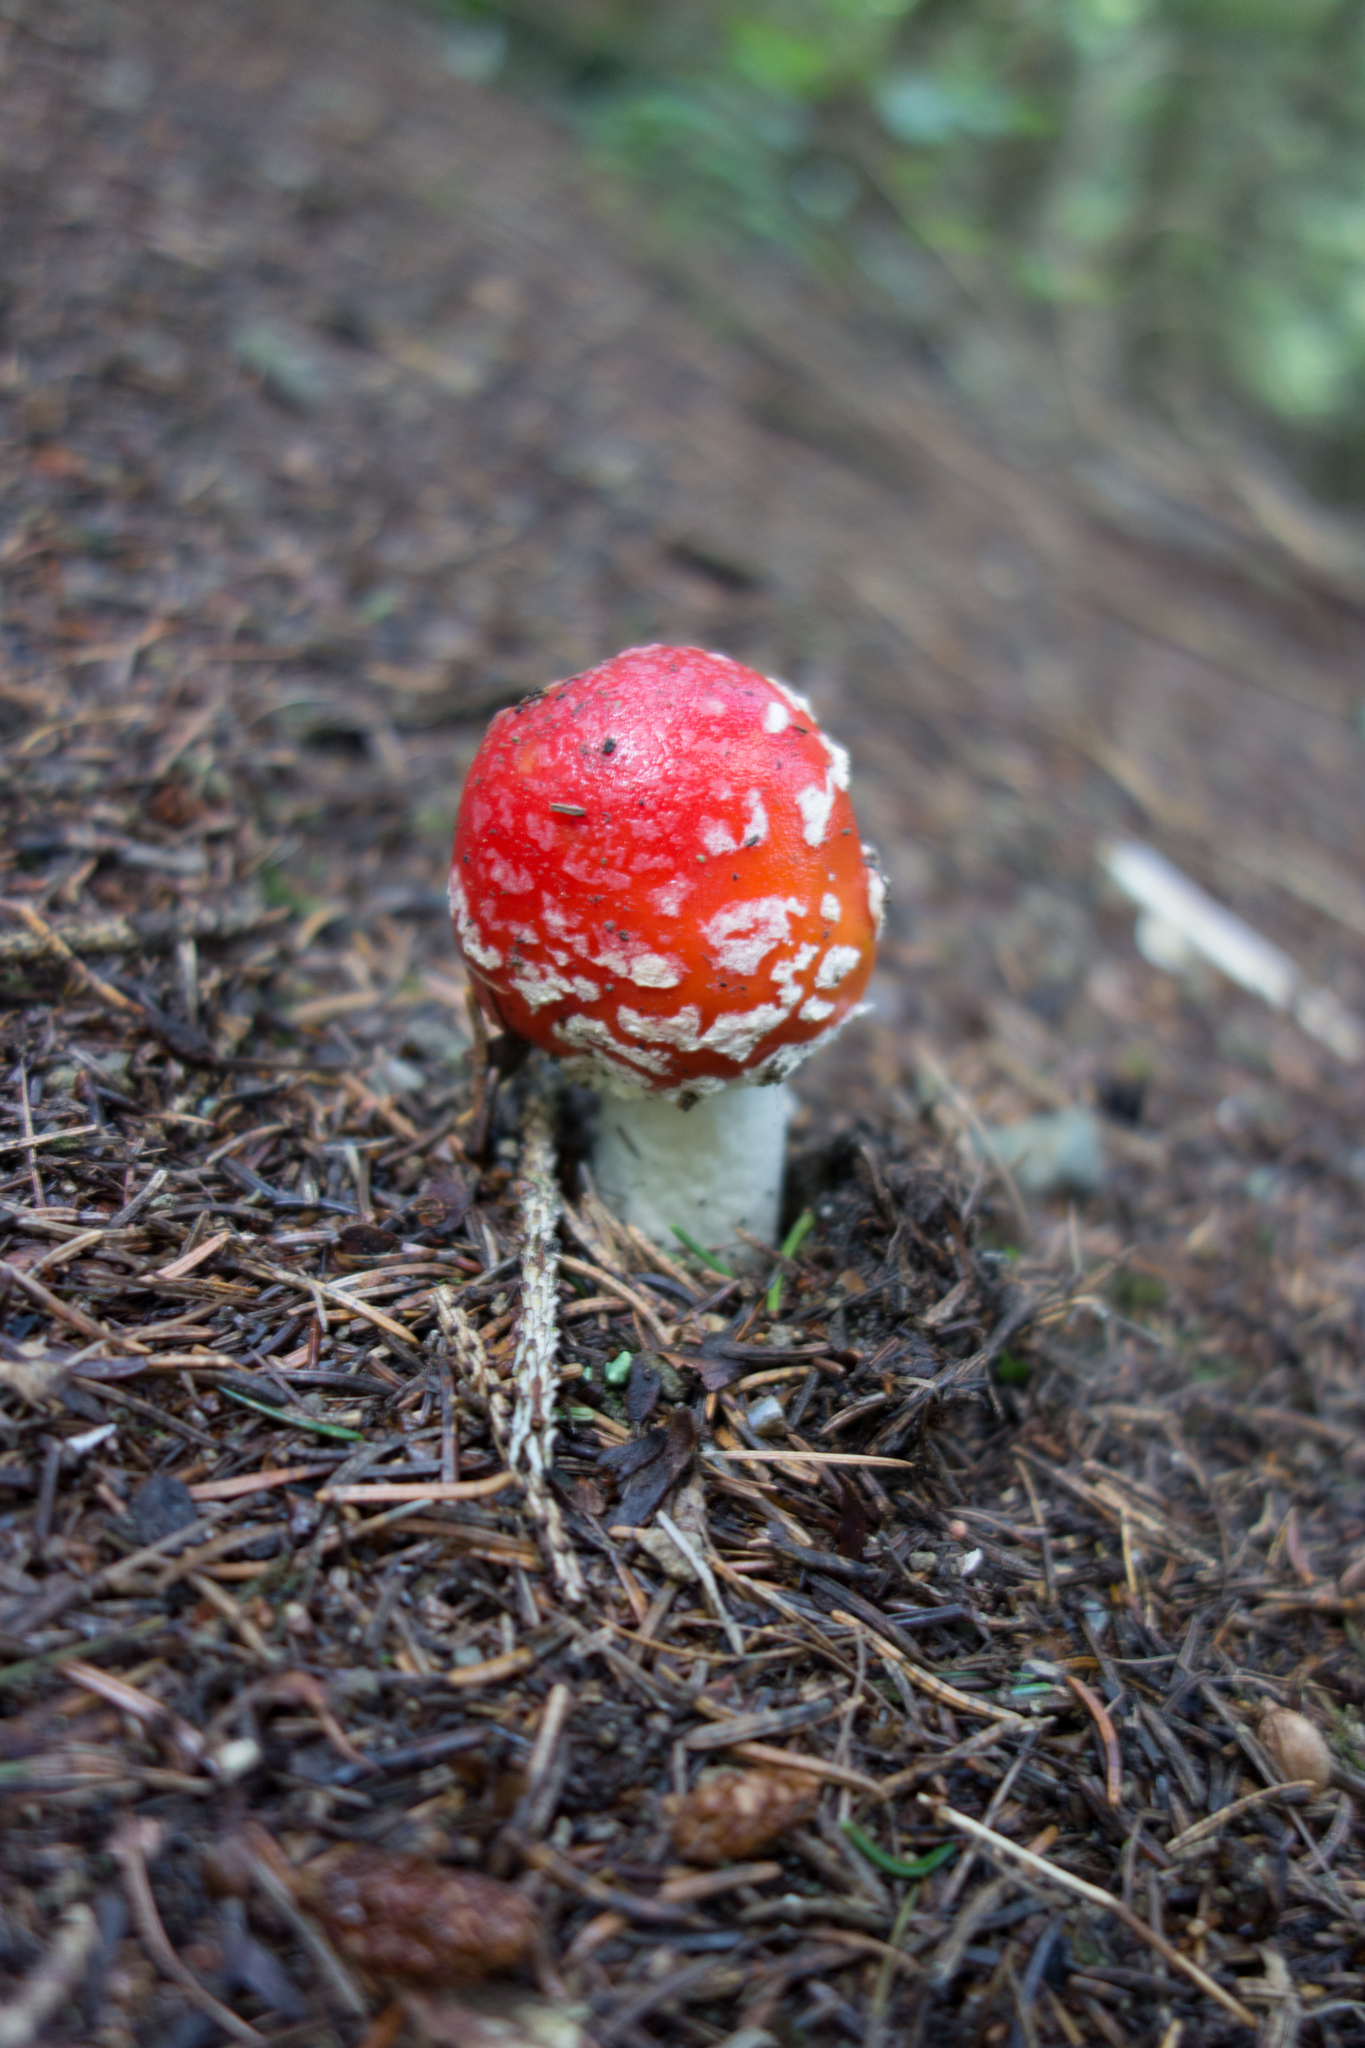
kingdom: Fungi
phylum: Basidiomycota
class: Agaricomycetes
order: Agaricales
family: Amanitaceae
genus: Amanita
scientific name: Amanita muscaria
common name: Fly agaric
